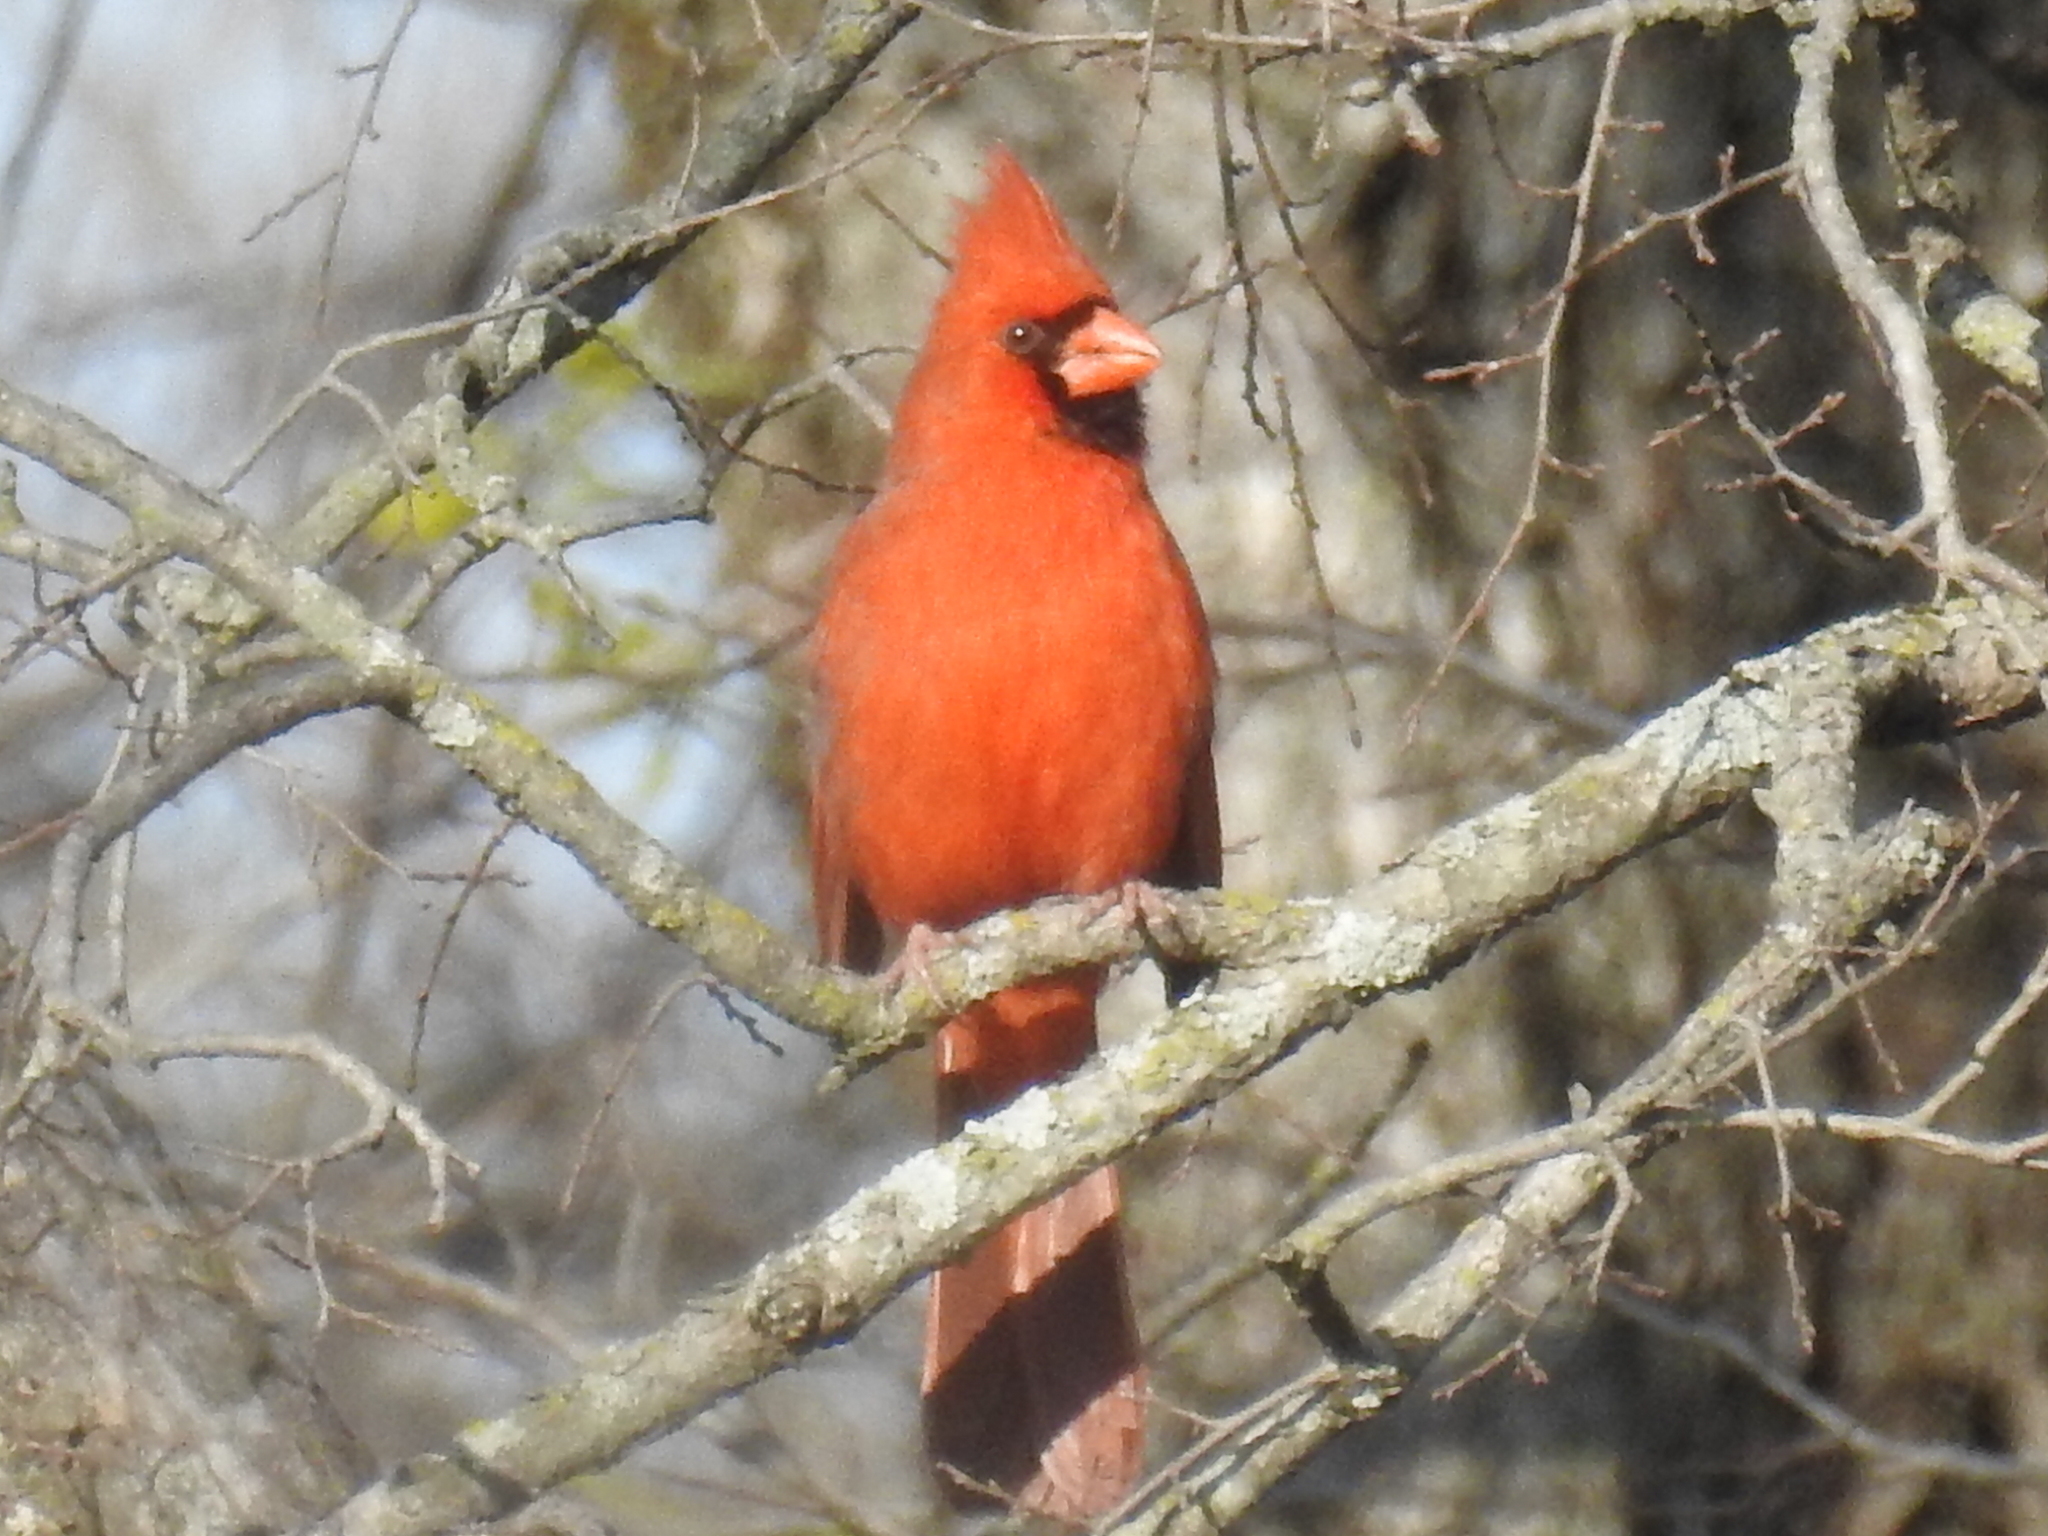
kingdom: Animalia
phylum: Chordata
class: Aves
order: Passeriformes
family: Cardinalidae
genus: Cardinalis
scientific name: Cardinalis cardinalis
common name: Northern cardinal
